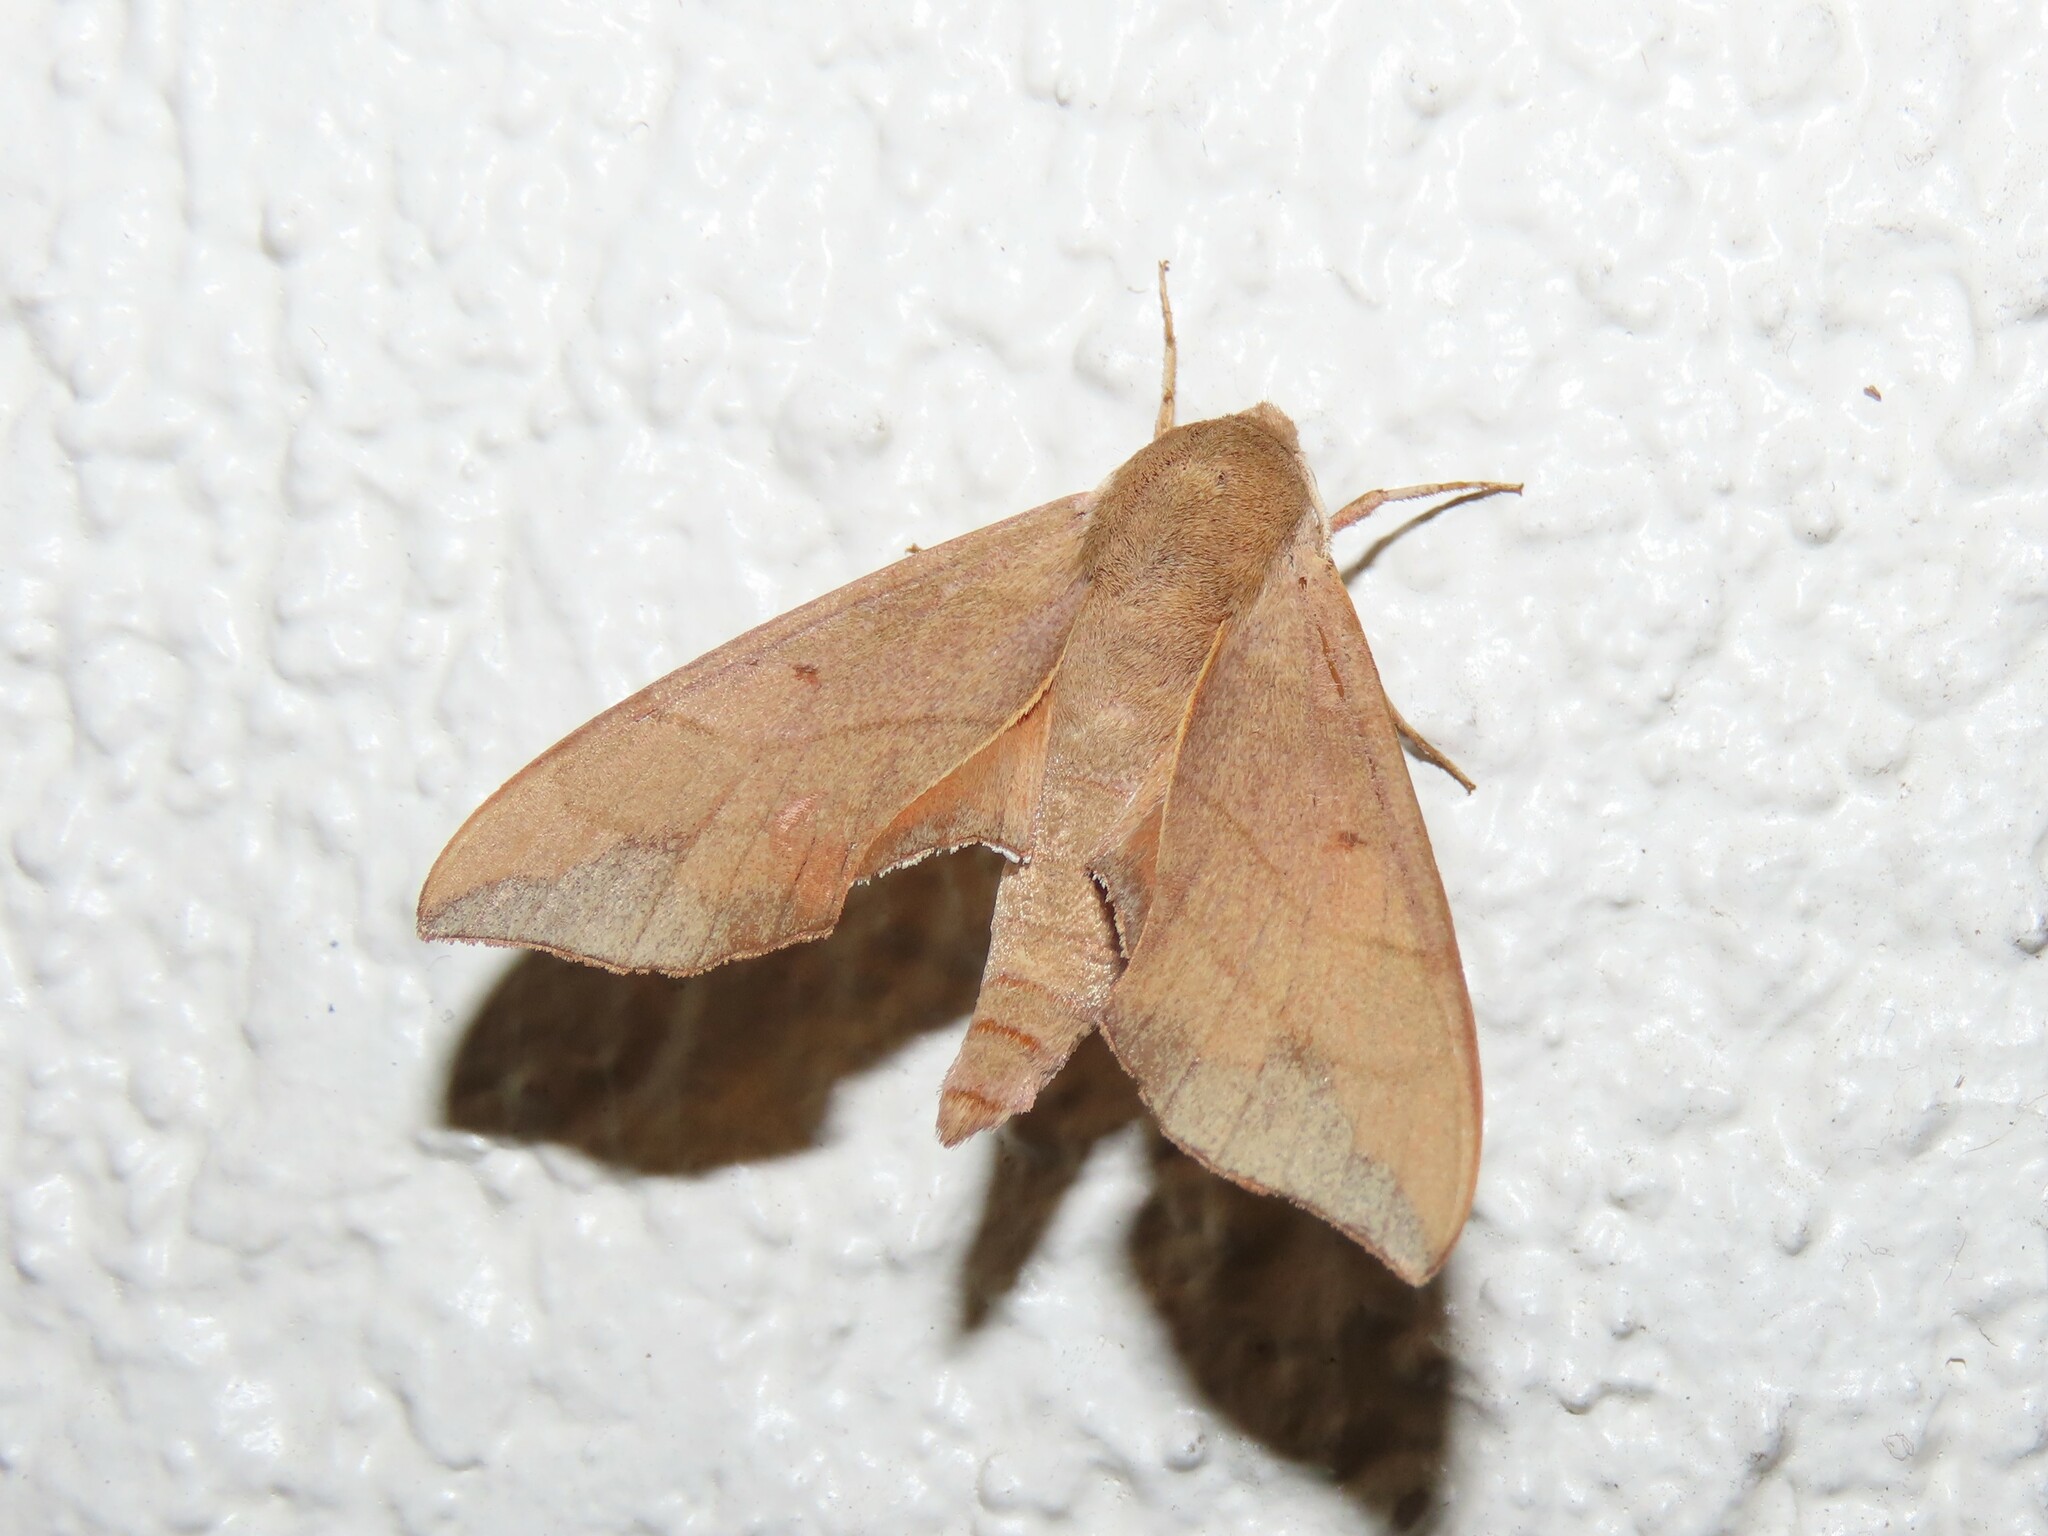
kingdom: Animalia
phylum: Arthropoda
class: Insecta
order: Lepidoptera
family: Sphingidae
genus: Darapsa
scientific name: Darapsa myron
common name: Hog sphinx
